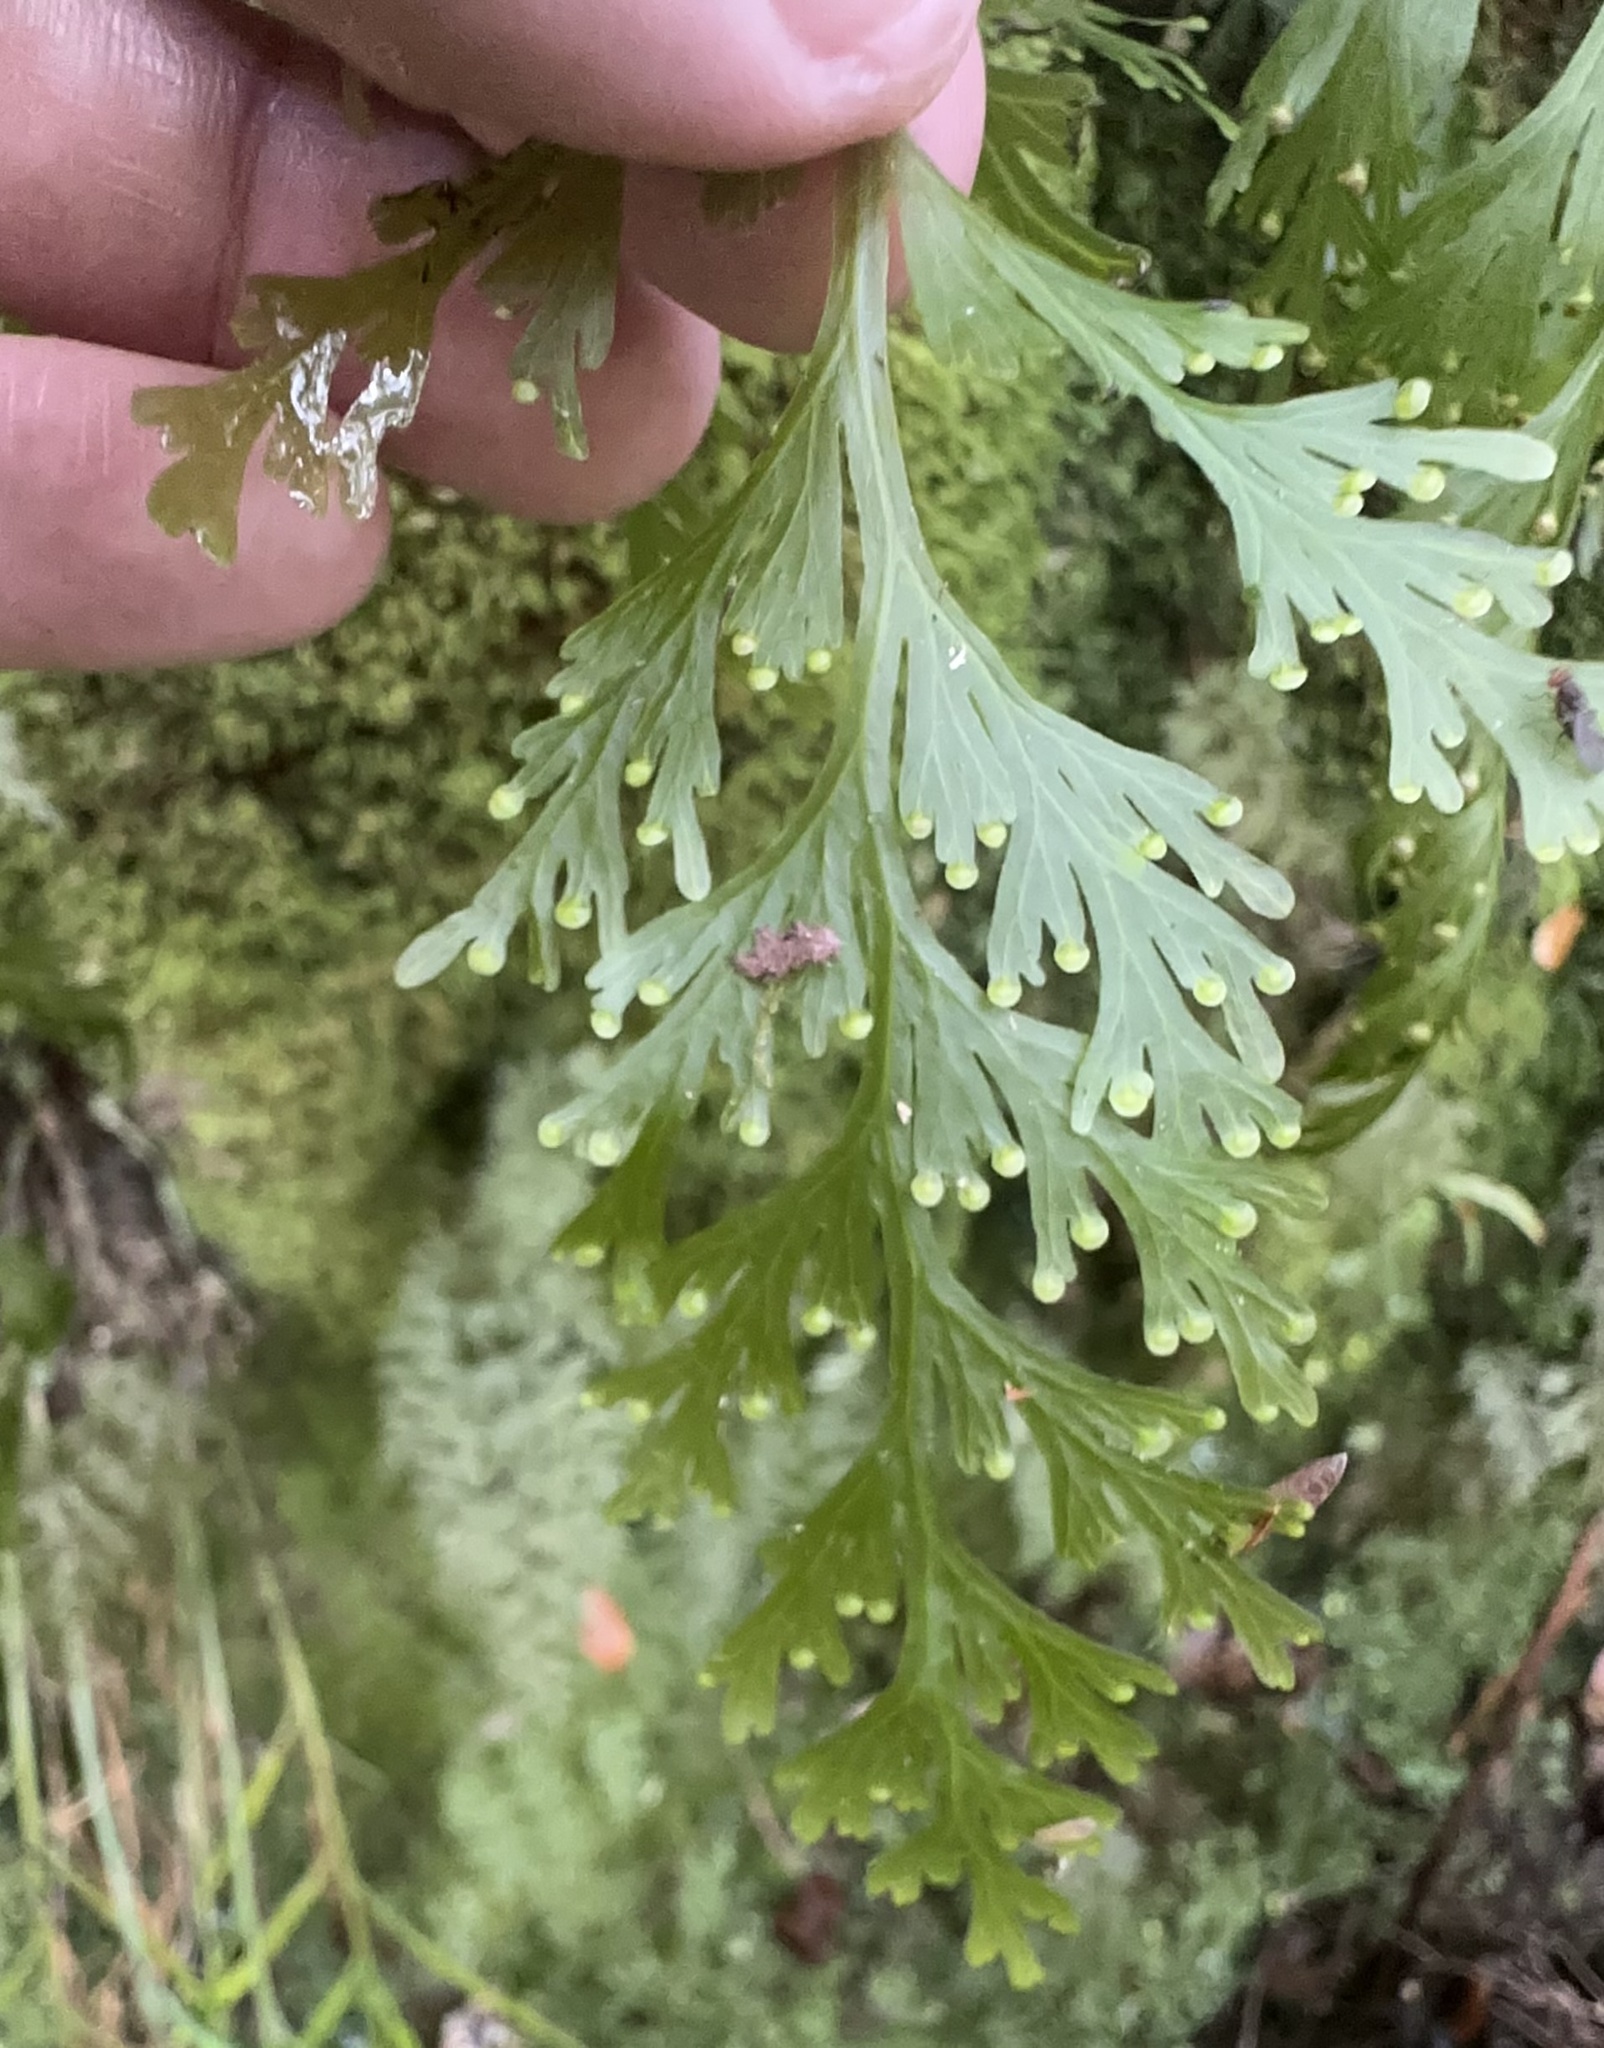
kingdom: Plantae
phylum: Tracheophyta
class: Polypodiopsida
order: Hymenophyllales
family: Hymenophyllaceae
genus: Hymenophyllum
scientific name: Hymenophyllum dilatatum
